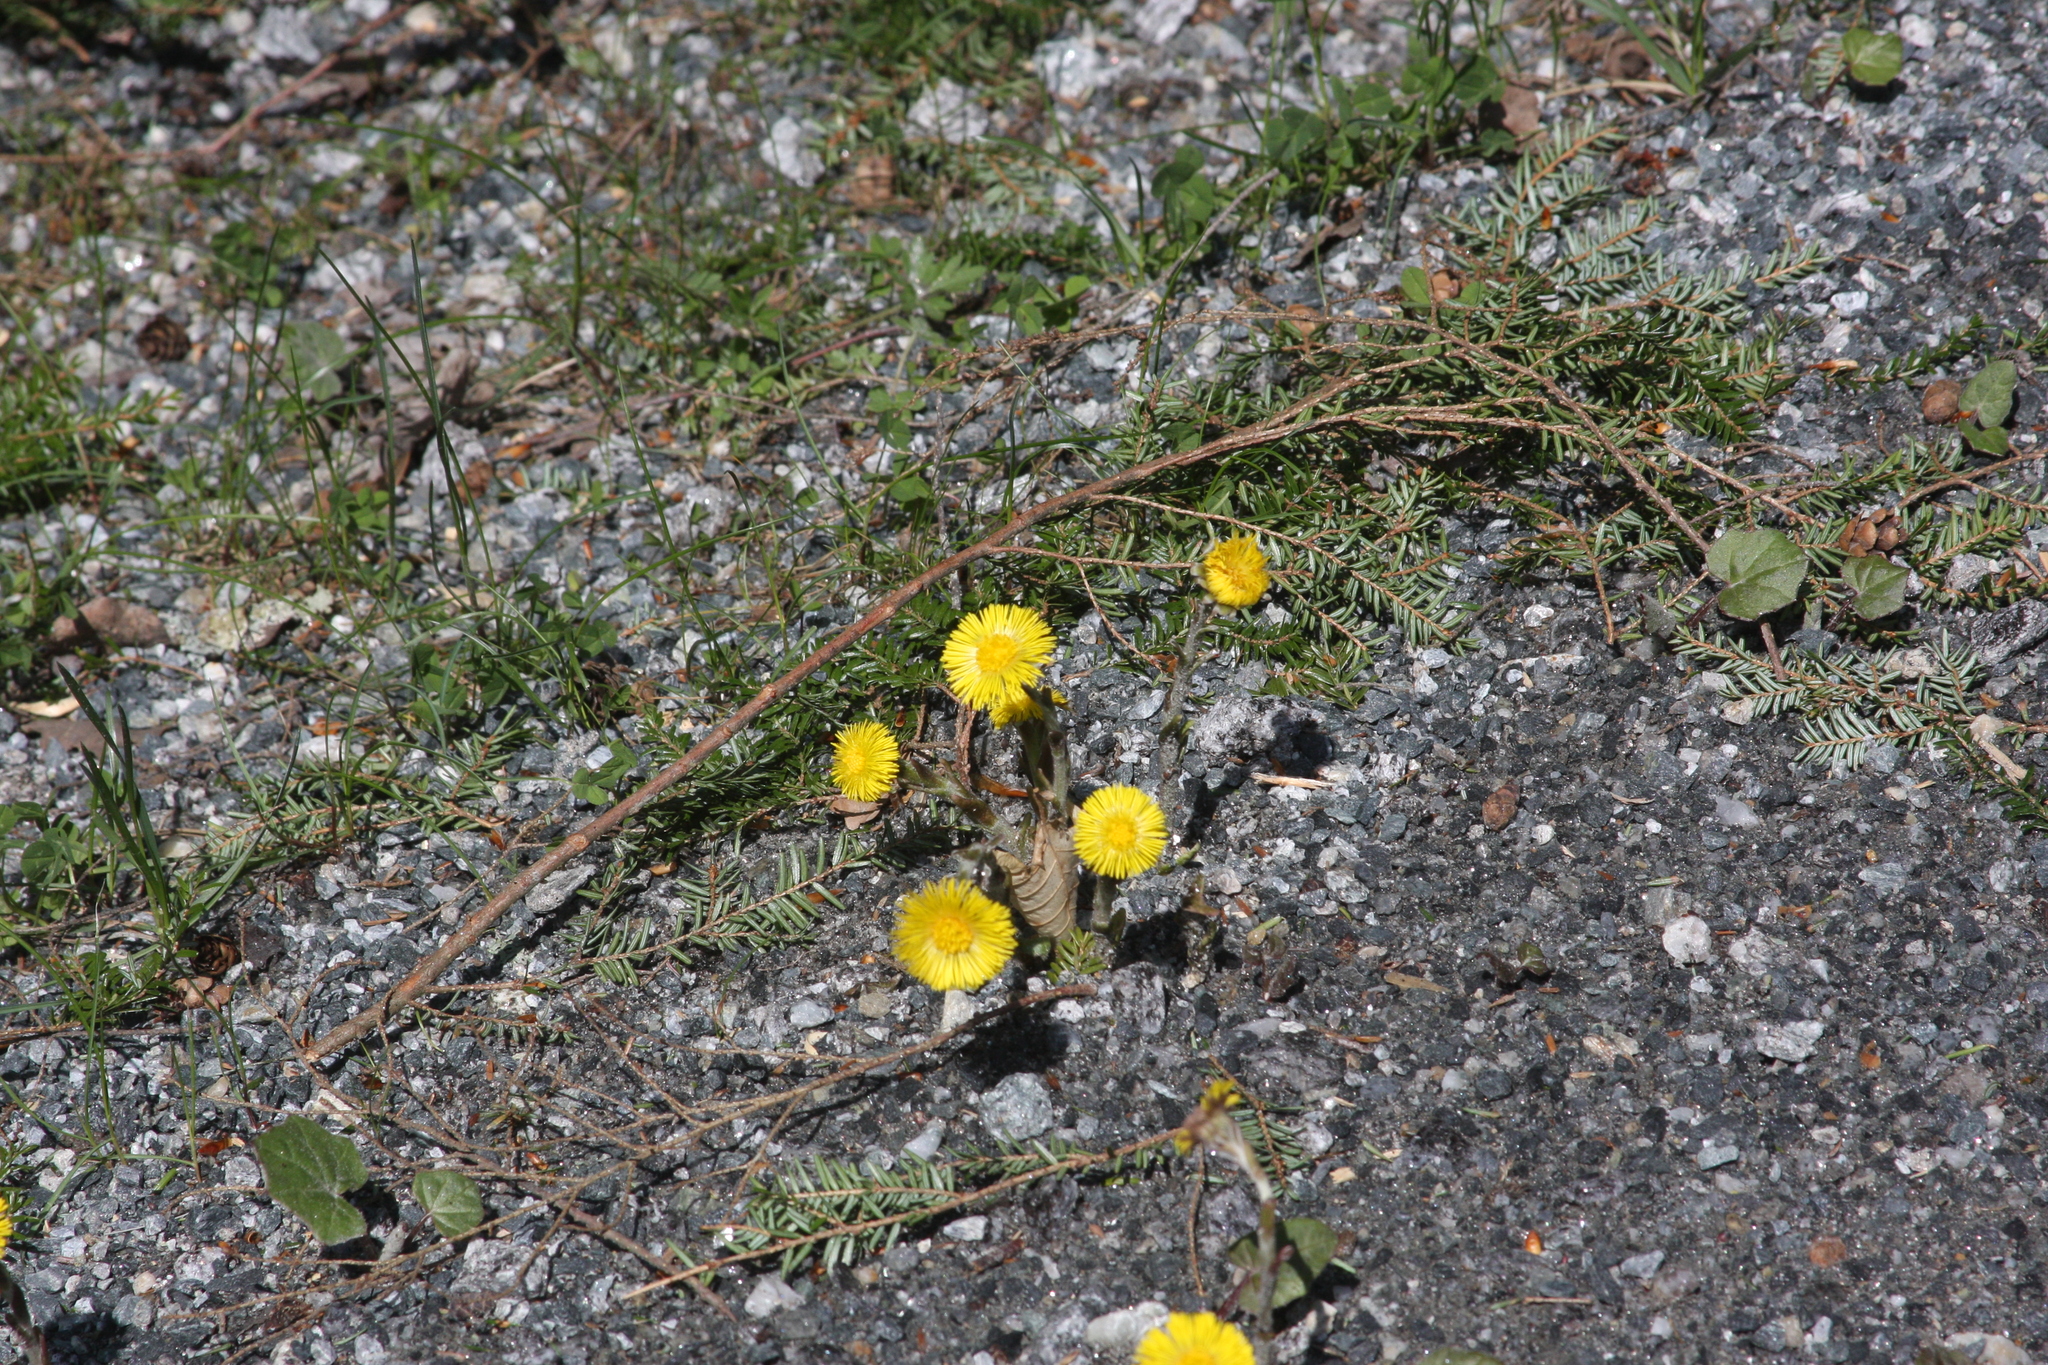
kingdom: Plantae
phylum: Tracheophyta
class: Magnoliopsida
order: Asterales
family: Asteraceae
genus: Tussilago
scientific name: Tussilago farfara
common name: Coltsfoot
